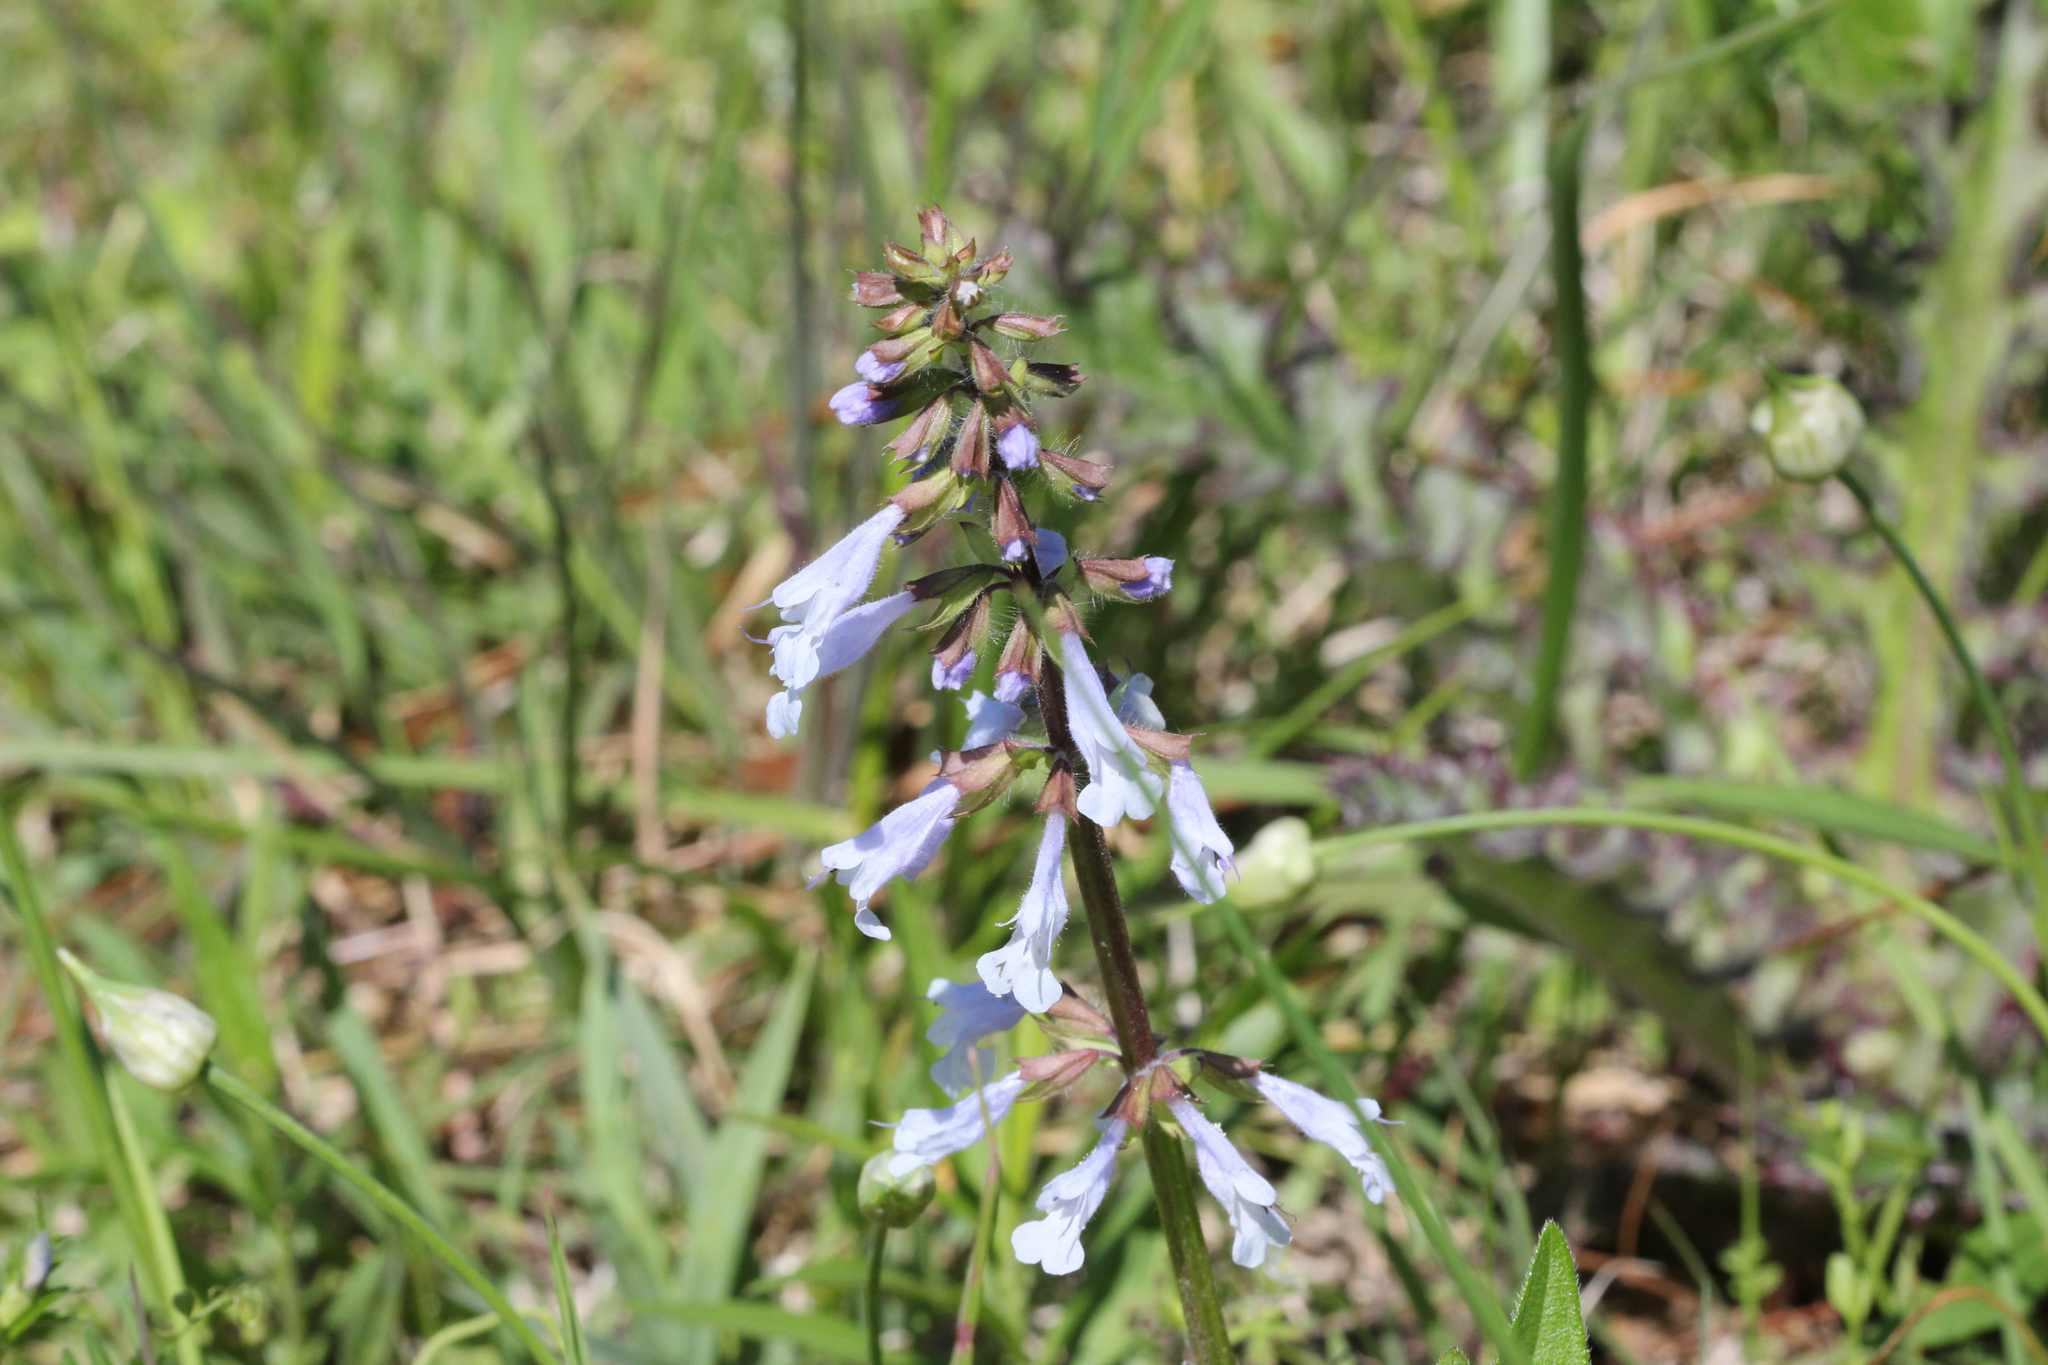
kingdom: Plantae
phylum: Tracheophyta
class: Magnoliopsida
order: Lamiales
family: Lamiaceae
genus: Salvia
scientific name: Salvia lyrata
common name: Cancerweed
